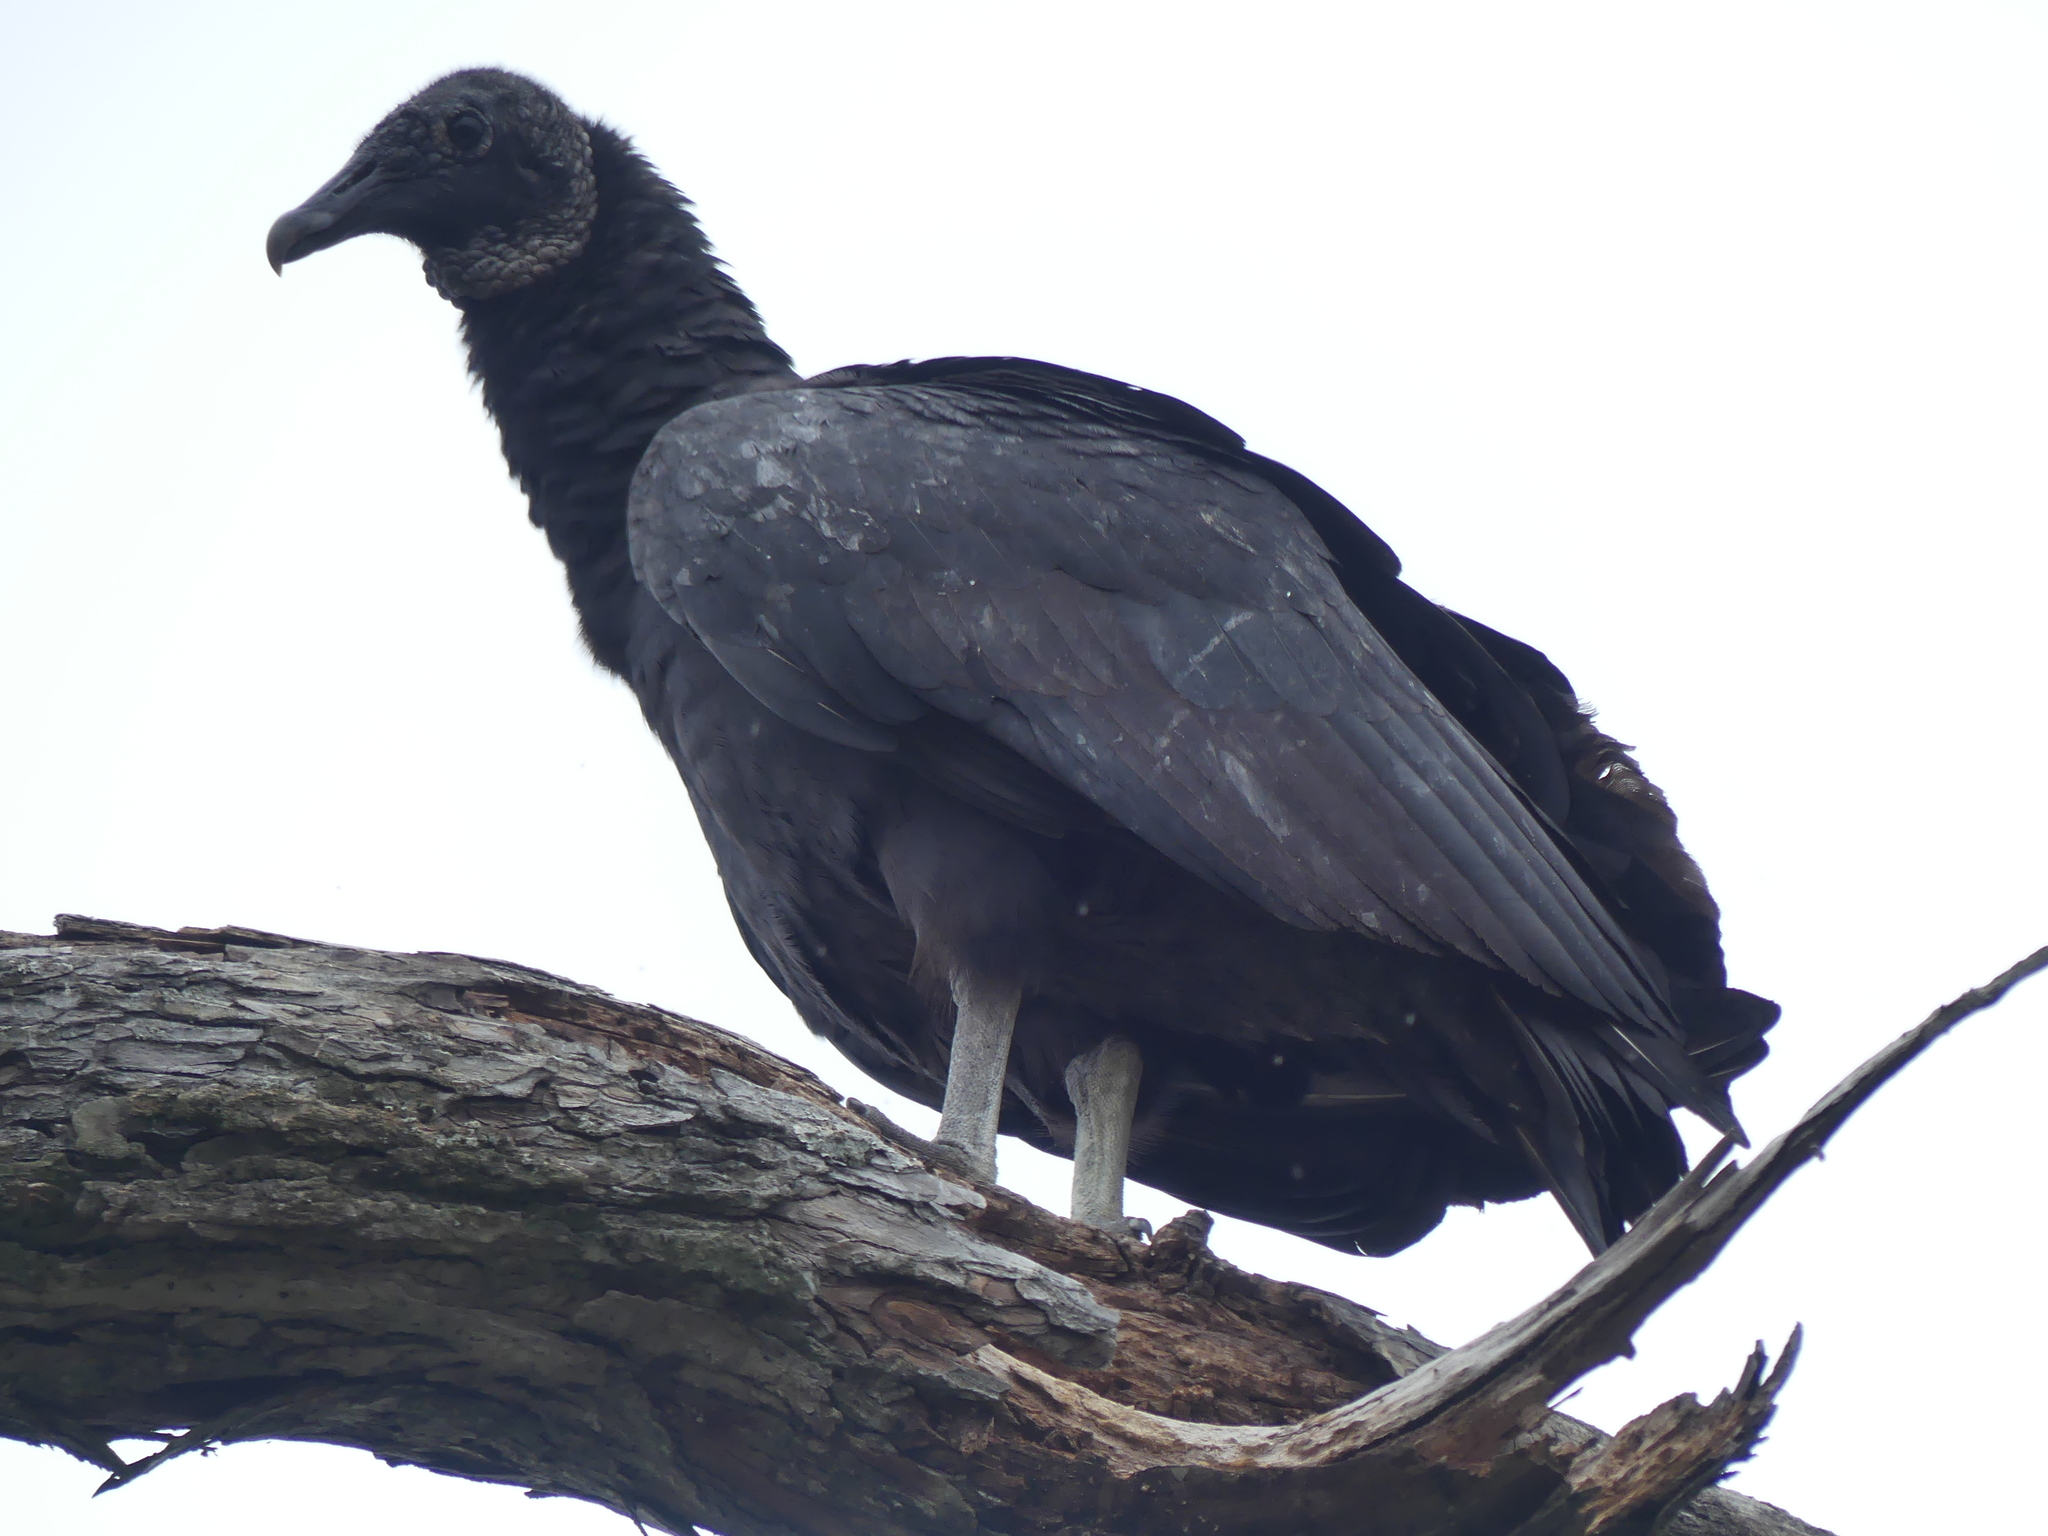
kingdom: Animalia
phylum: Chordata
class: Aves
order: Accipitriformes
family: Cathartidae
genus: Coragyps
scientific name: Coragyps atratus
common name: Black vulture
